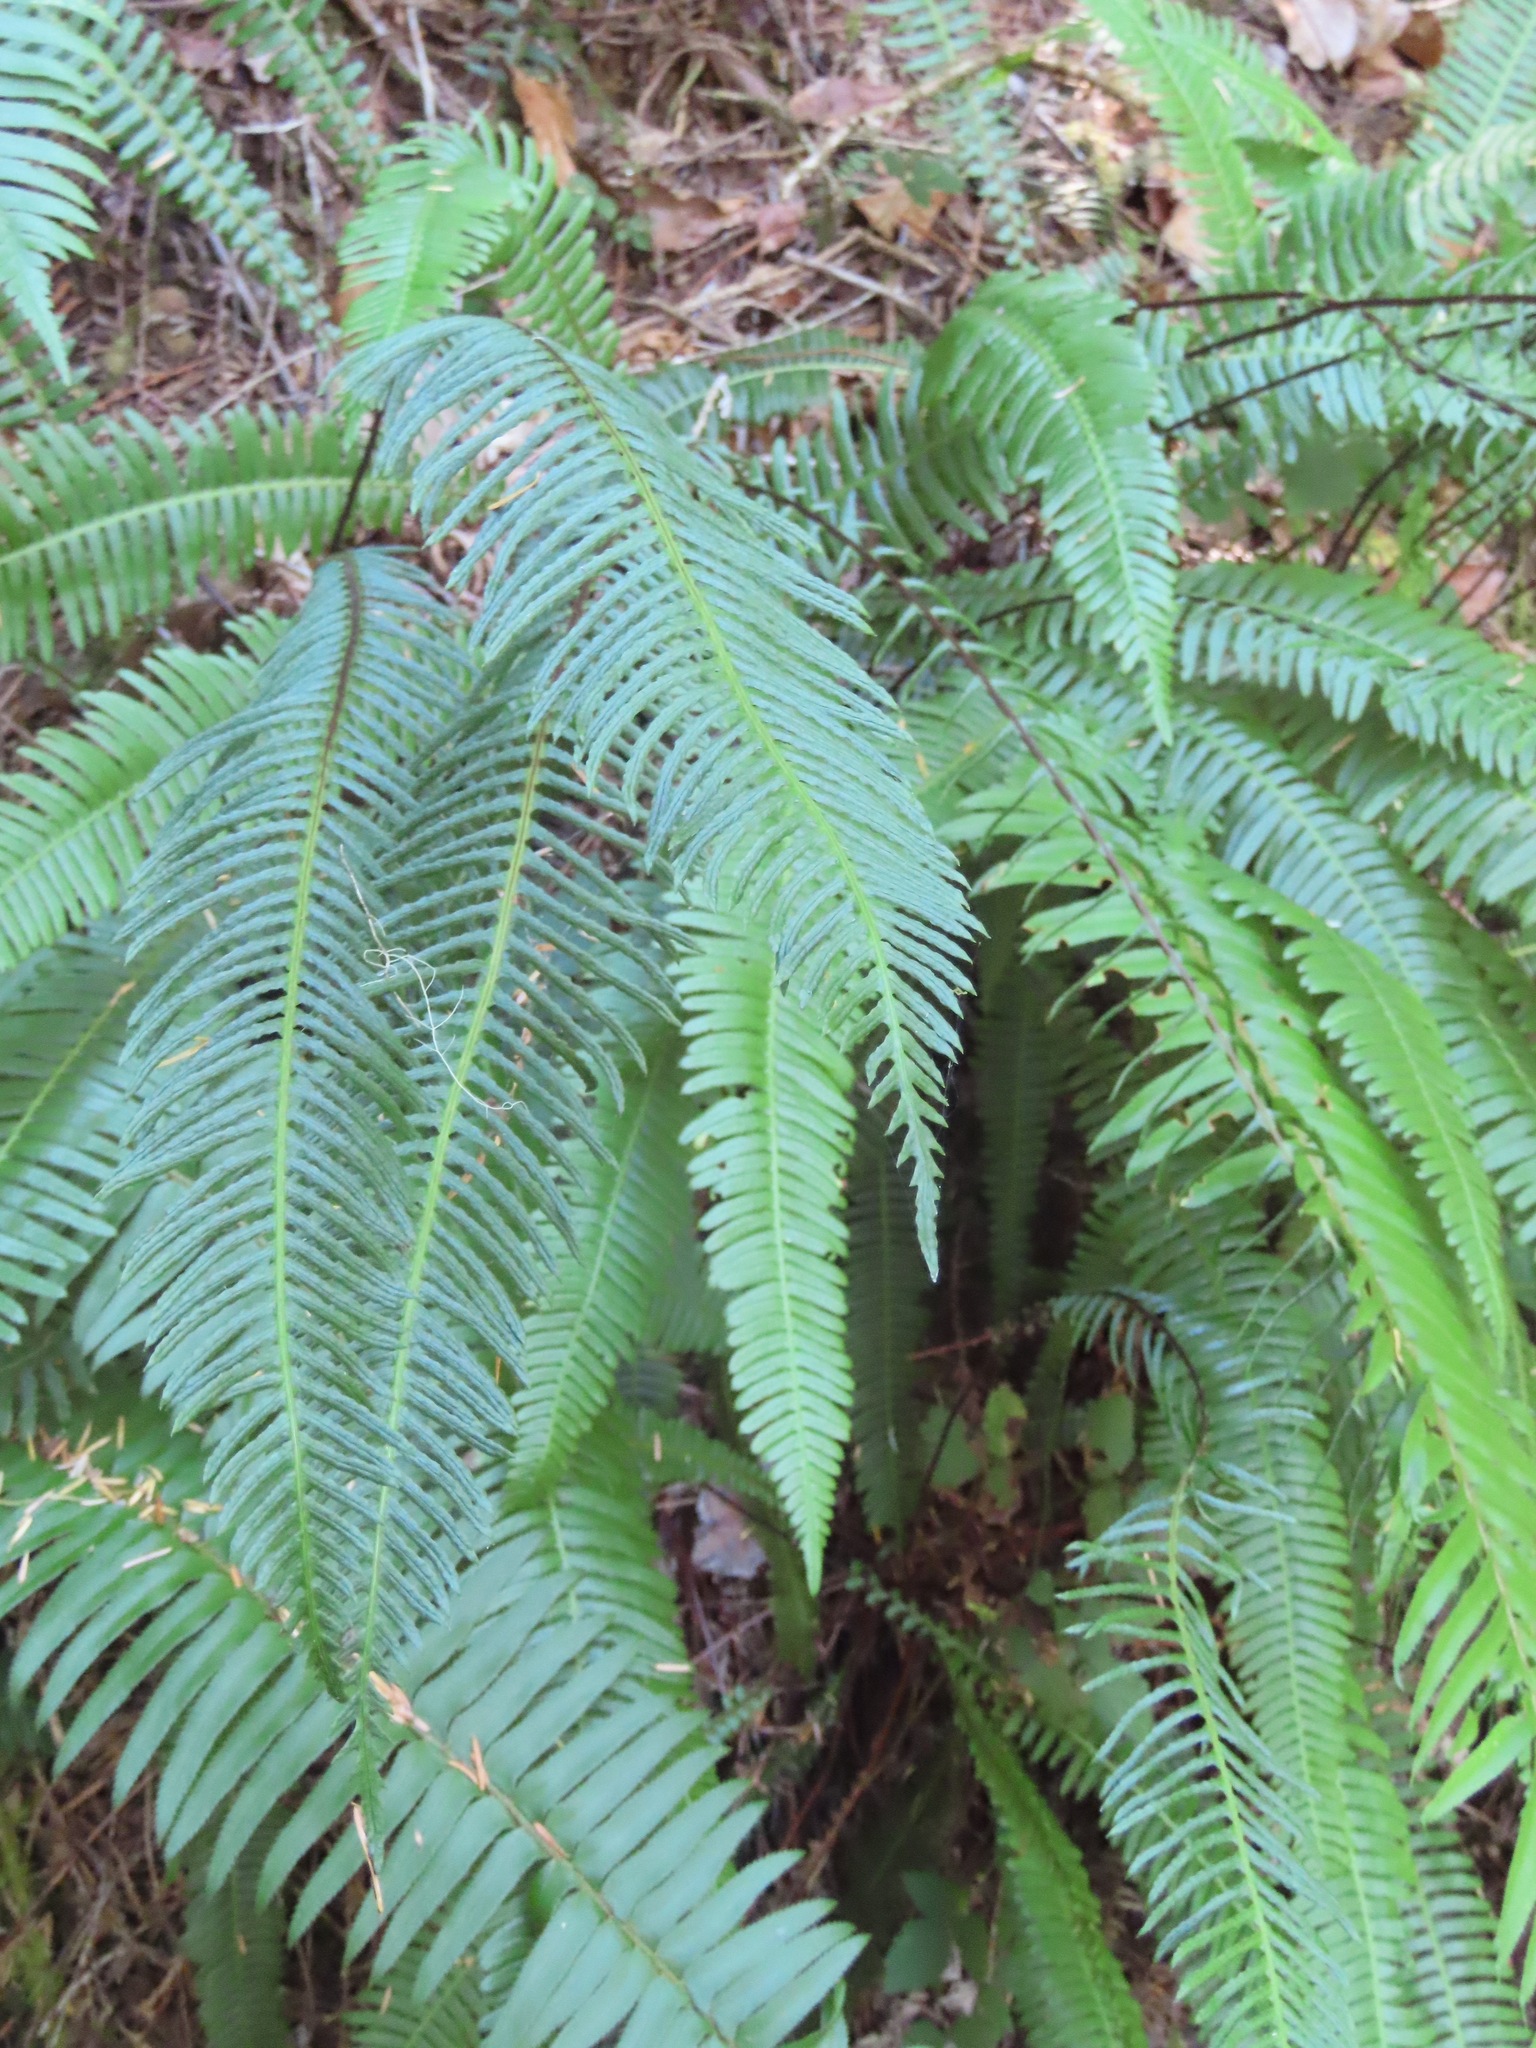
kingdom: Plantae
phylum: Tracheophyta
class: Polypodiopsida
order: Polypodiales
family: Blechnaceae
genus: Struthiopteris
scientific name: Struthiopteris spicant
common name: Deer fern
